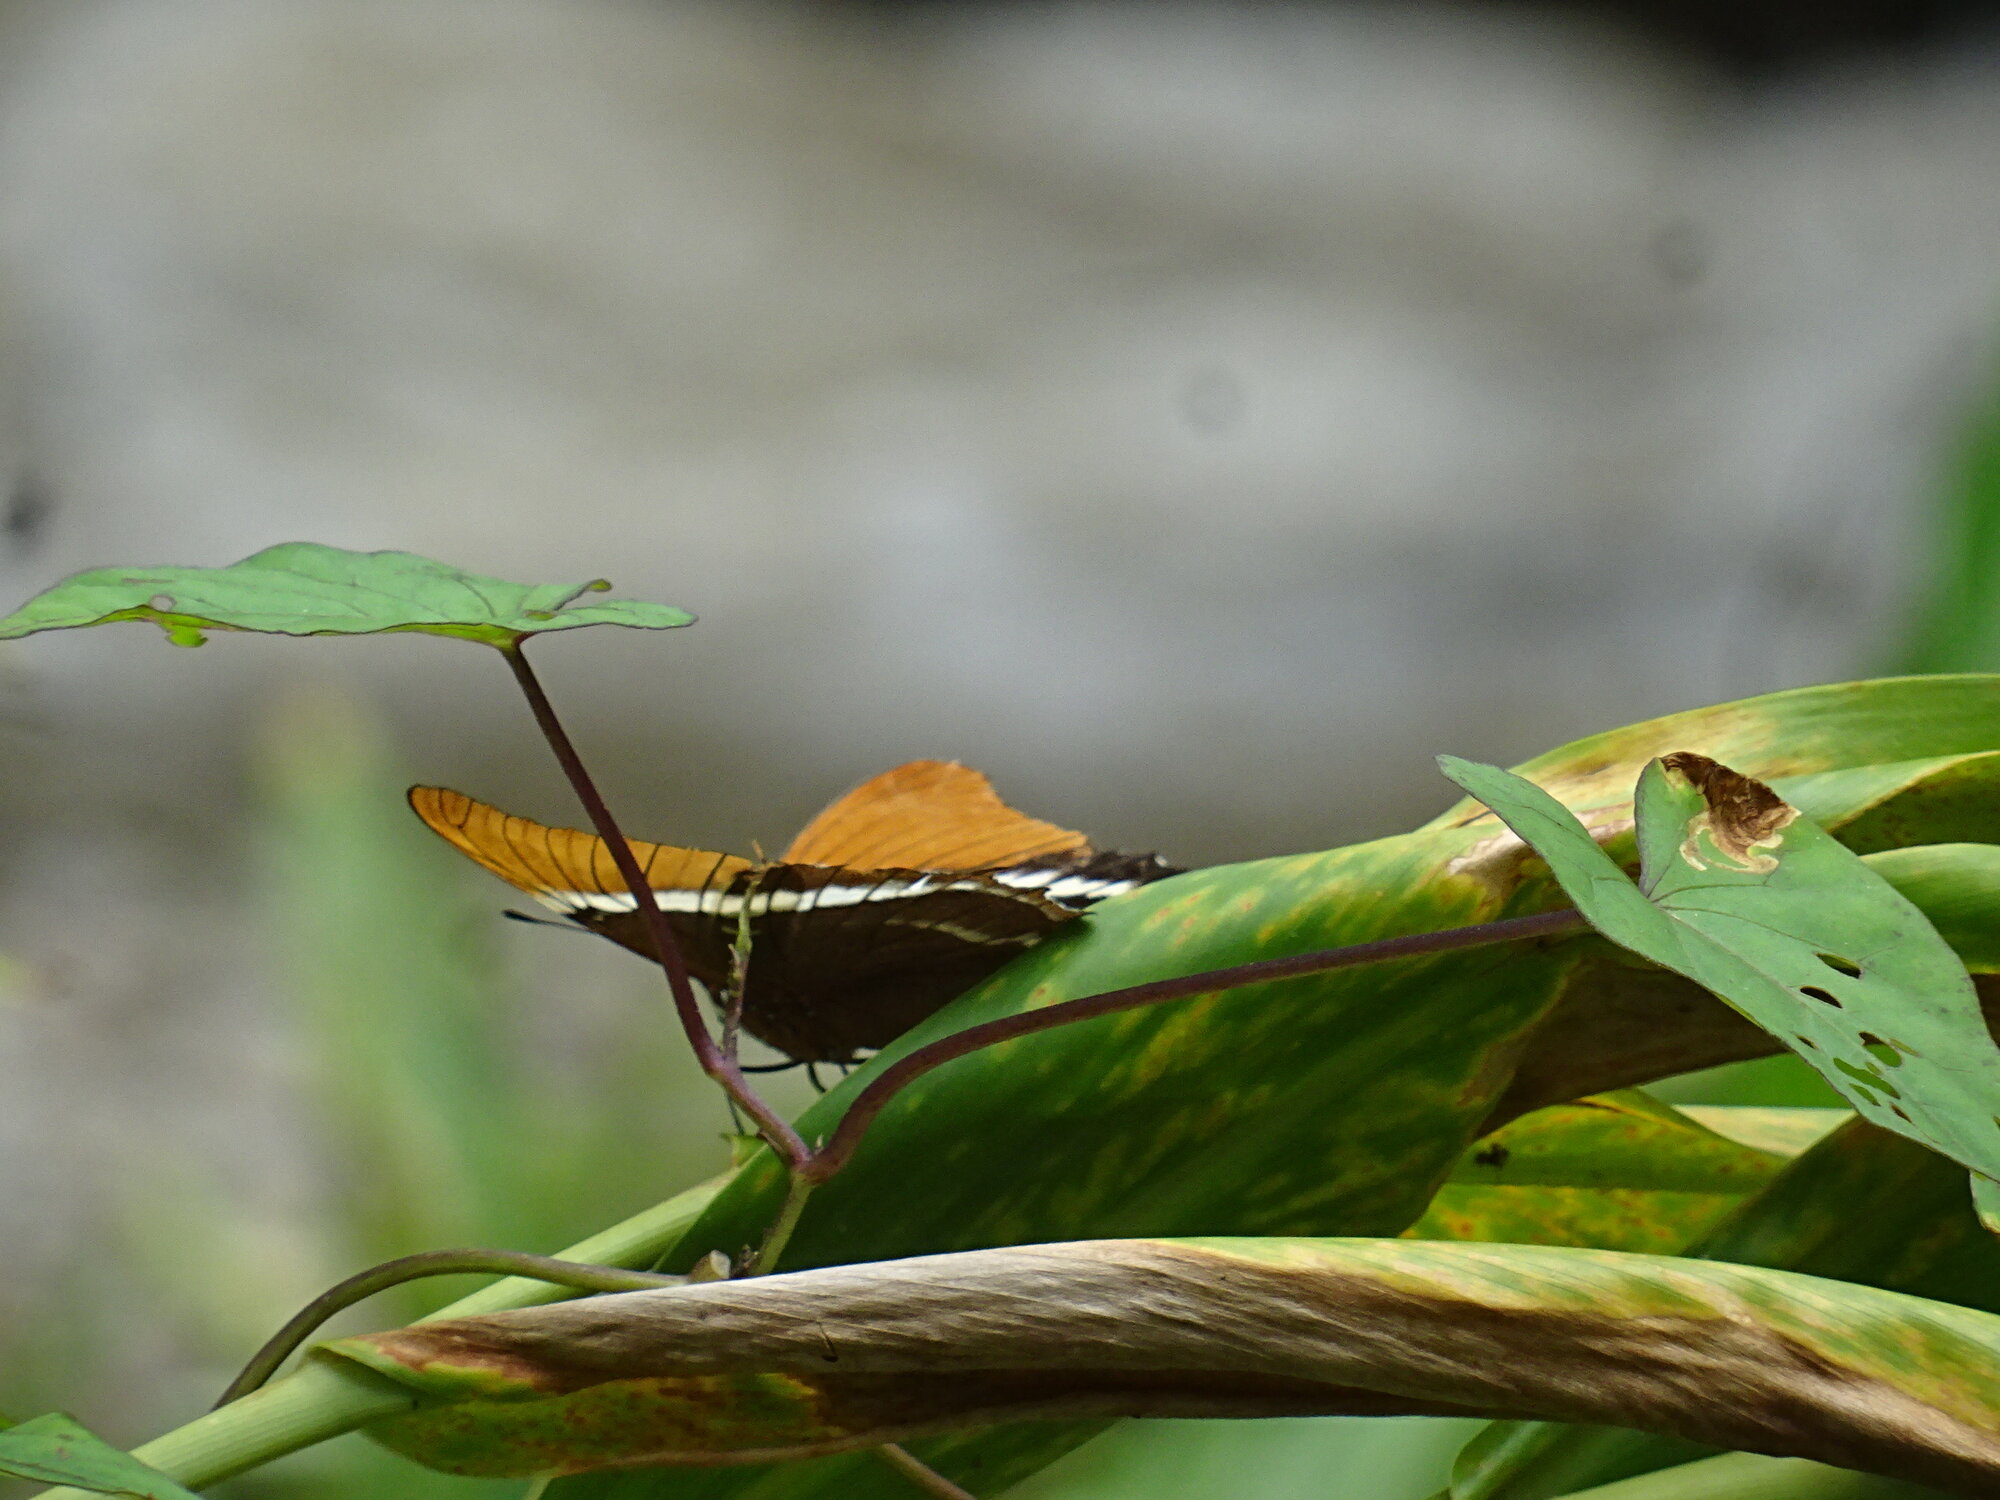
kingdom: Animalia
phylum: Arthropoda
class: Insecta
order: Lepidoptera
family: Nymphalidae
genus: Siproeta
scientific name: Siproeta epaphus
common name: Rusty-tipped page
